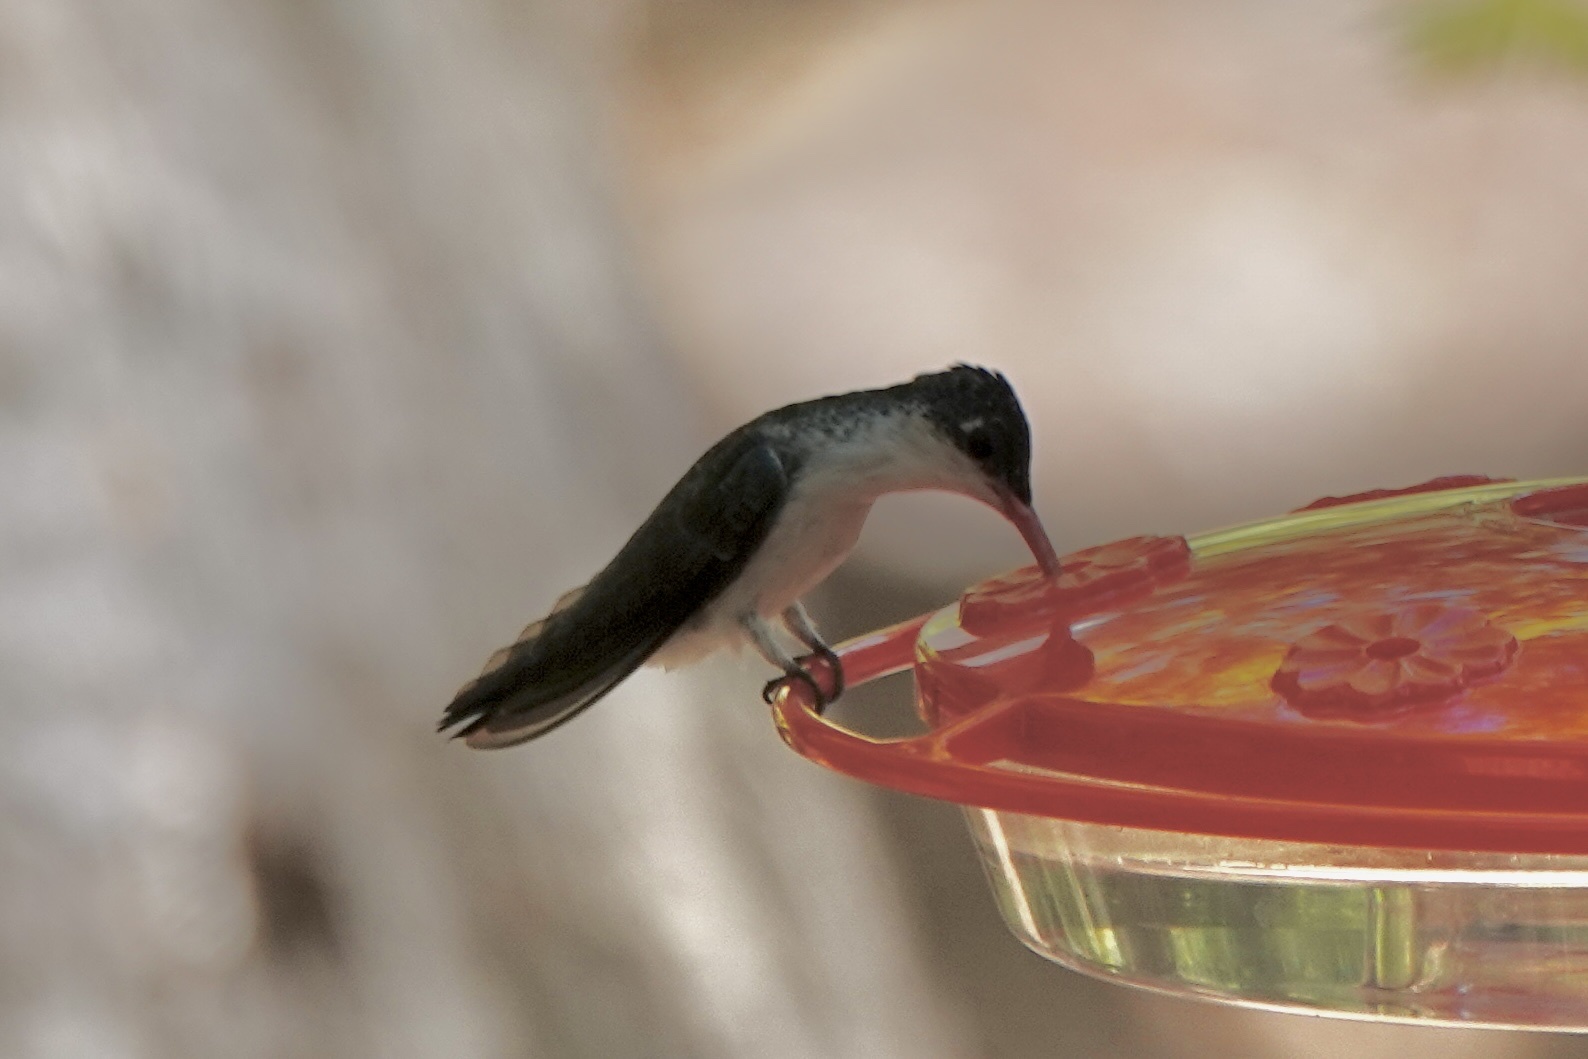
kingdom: Animalia
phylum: Chordata
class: Aves
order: Apodiformes
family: Trochilidae
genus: Leucolia
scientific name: Leucolia violiceps
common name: Violet-crowned hummingbird
